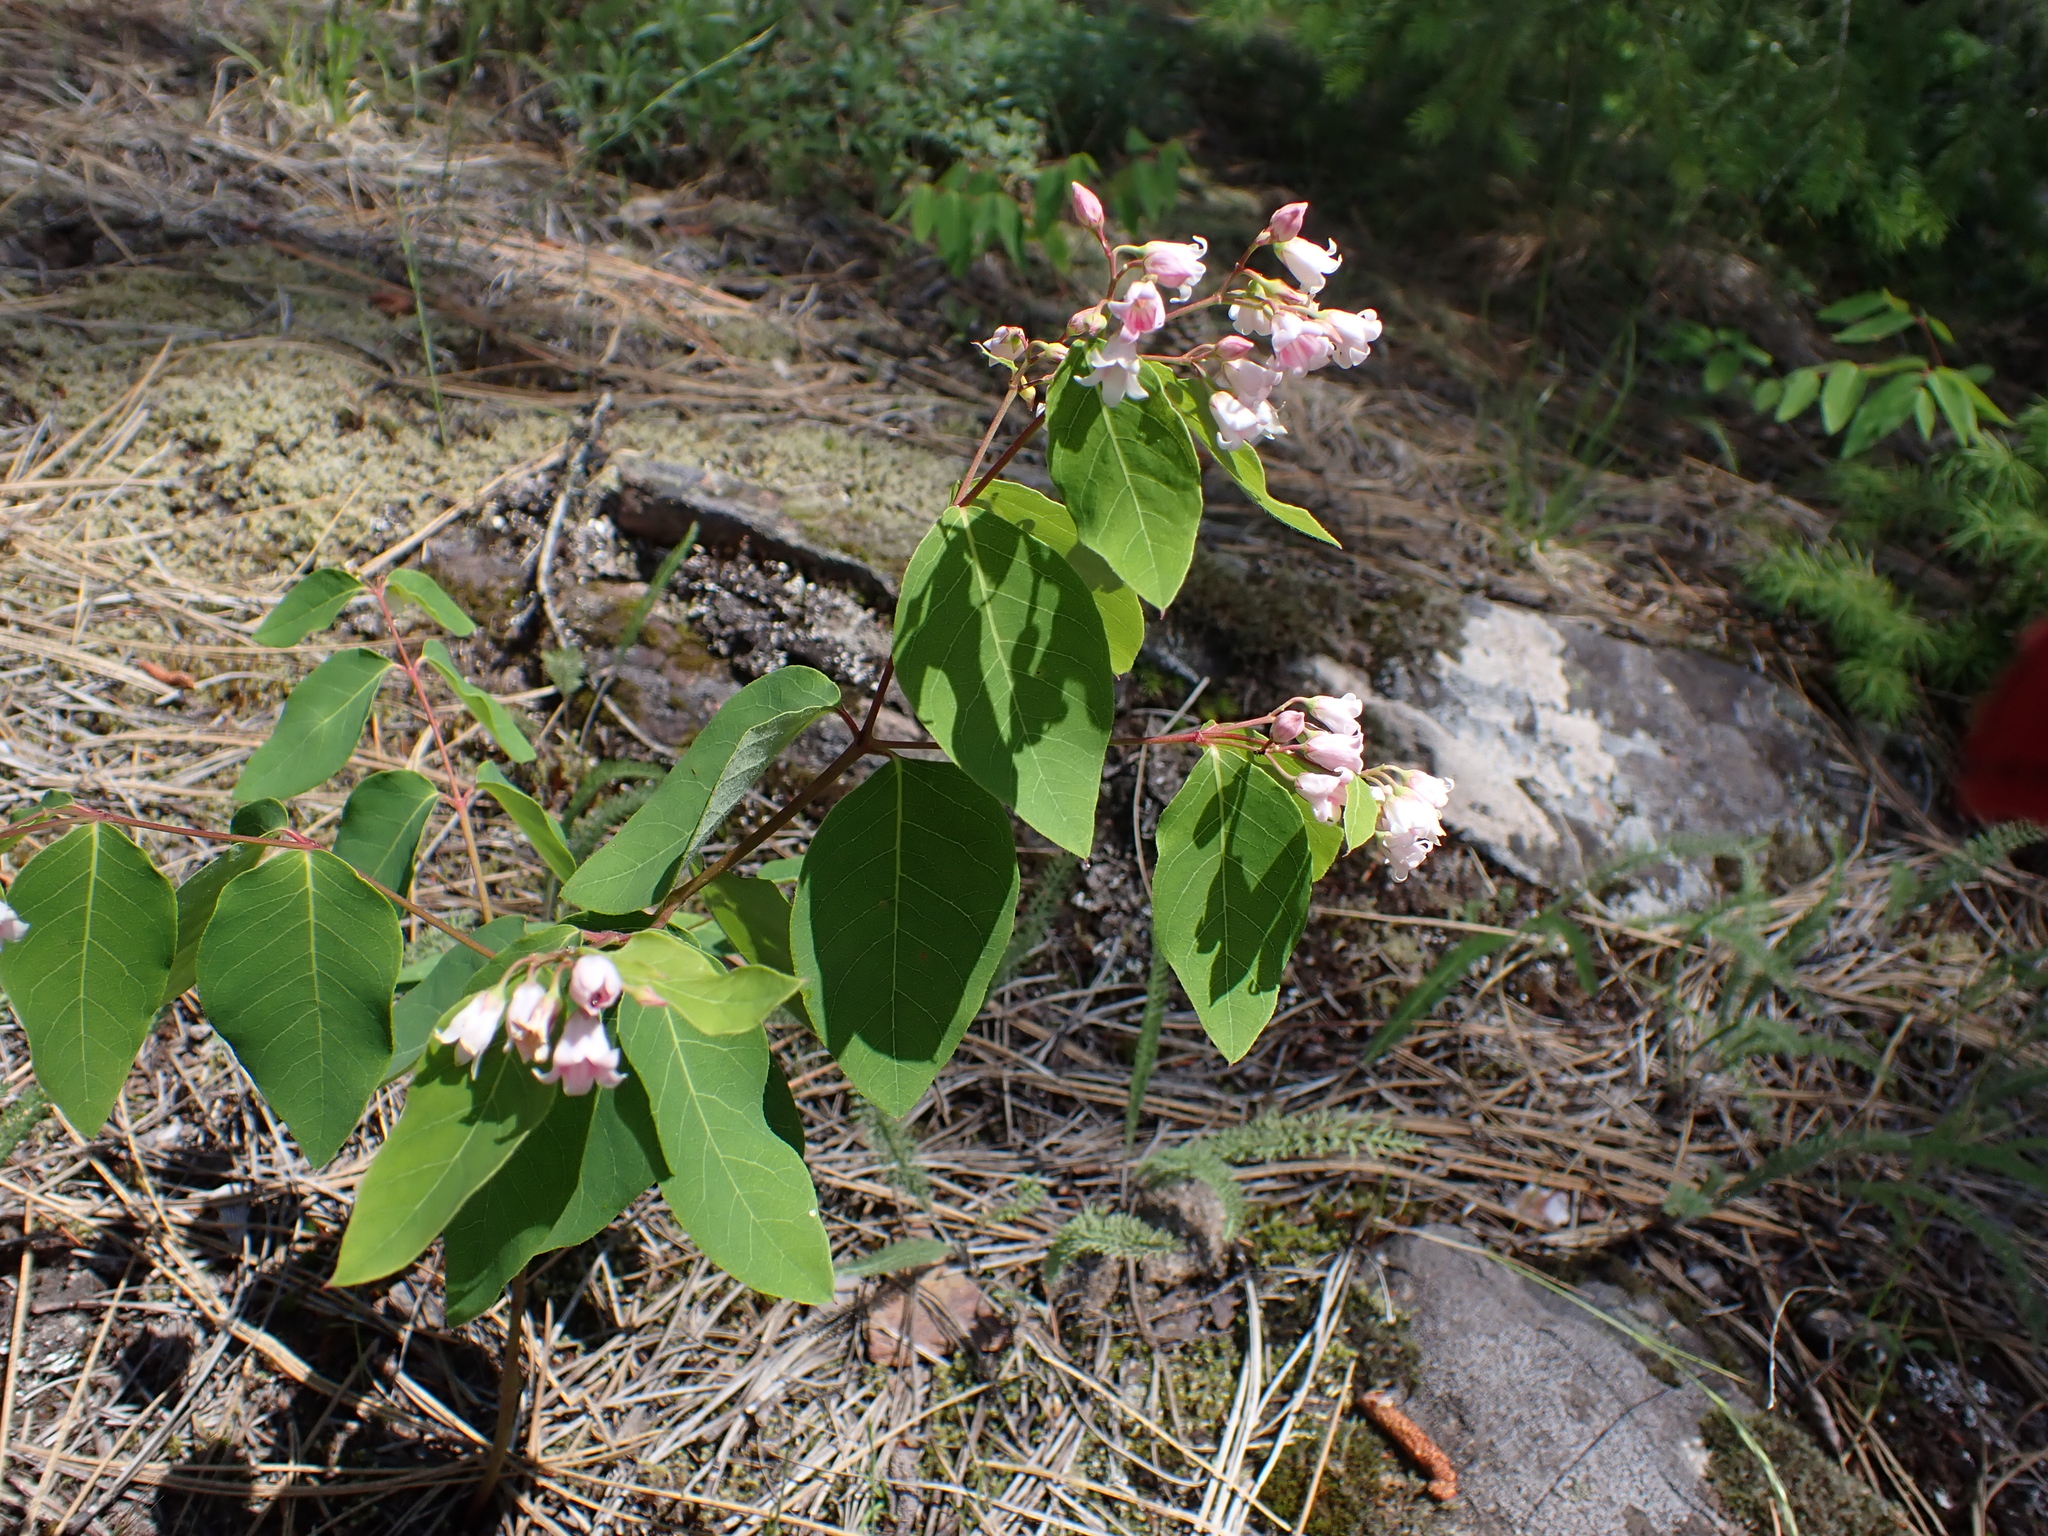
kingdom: Plantae
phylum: Tracheophyta
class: Magnoliopsida
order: Gentianales
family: Apocynaceae
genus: Apocynum
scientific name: Apocynum androsaemifolium
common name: Spreading dogbane
